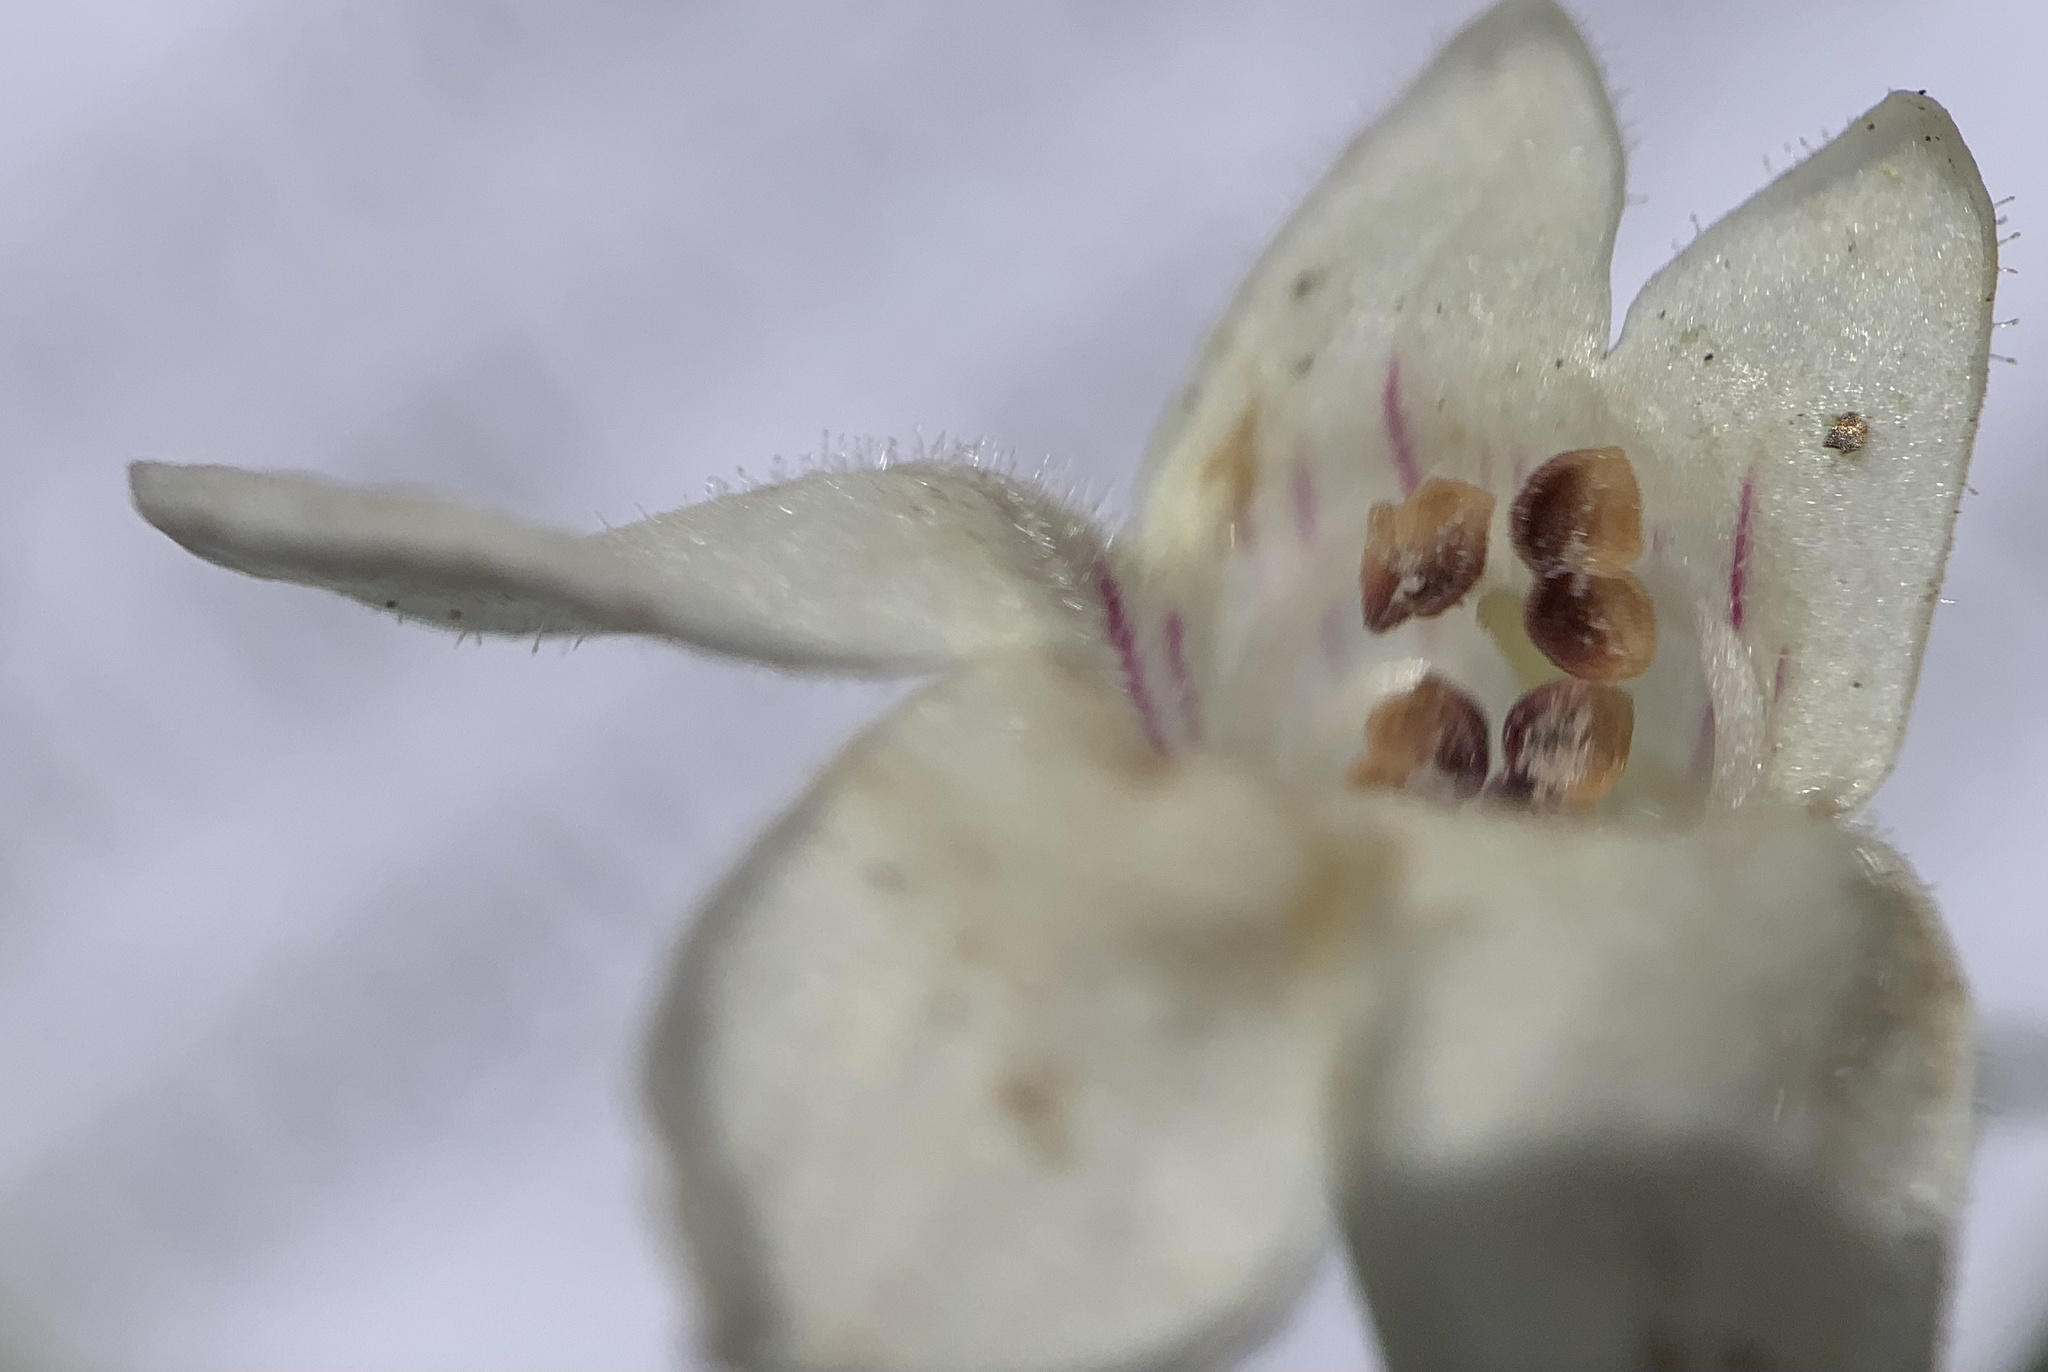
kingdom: Plantae
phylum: Tracheophyta
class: Magnoliopsida
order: Lamiales
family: Plantaginaceae
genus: Penstemon
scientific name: Penstemon deustus
